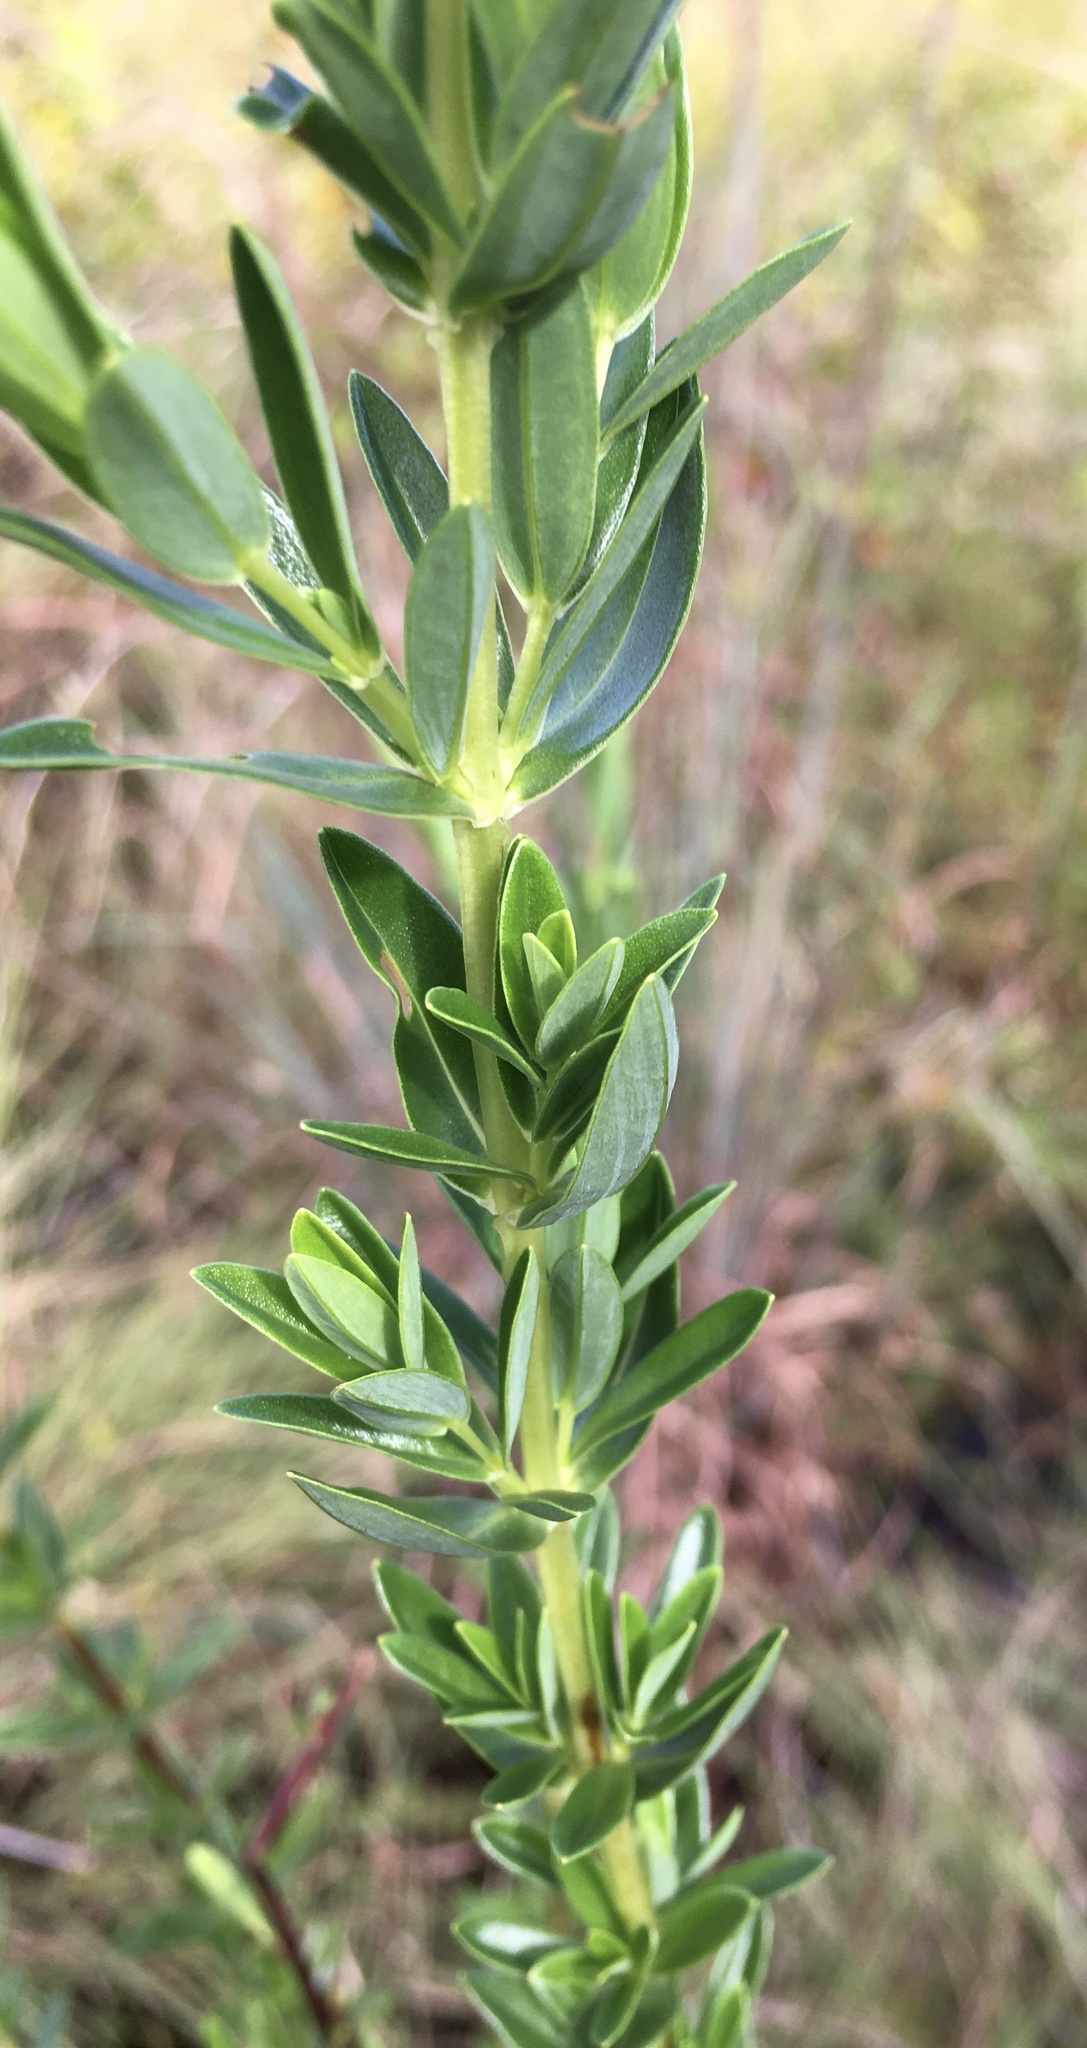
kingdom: Plantae
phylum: Tracheophyta
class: Magnoliopsida
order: Malpighiales
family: Hypericaceae
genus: Hypericum
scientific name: Hypericum cistifolium
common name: Round-pod st. john's-wort
